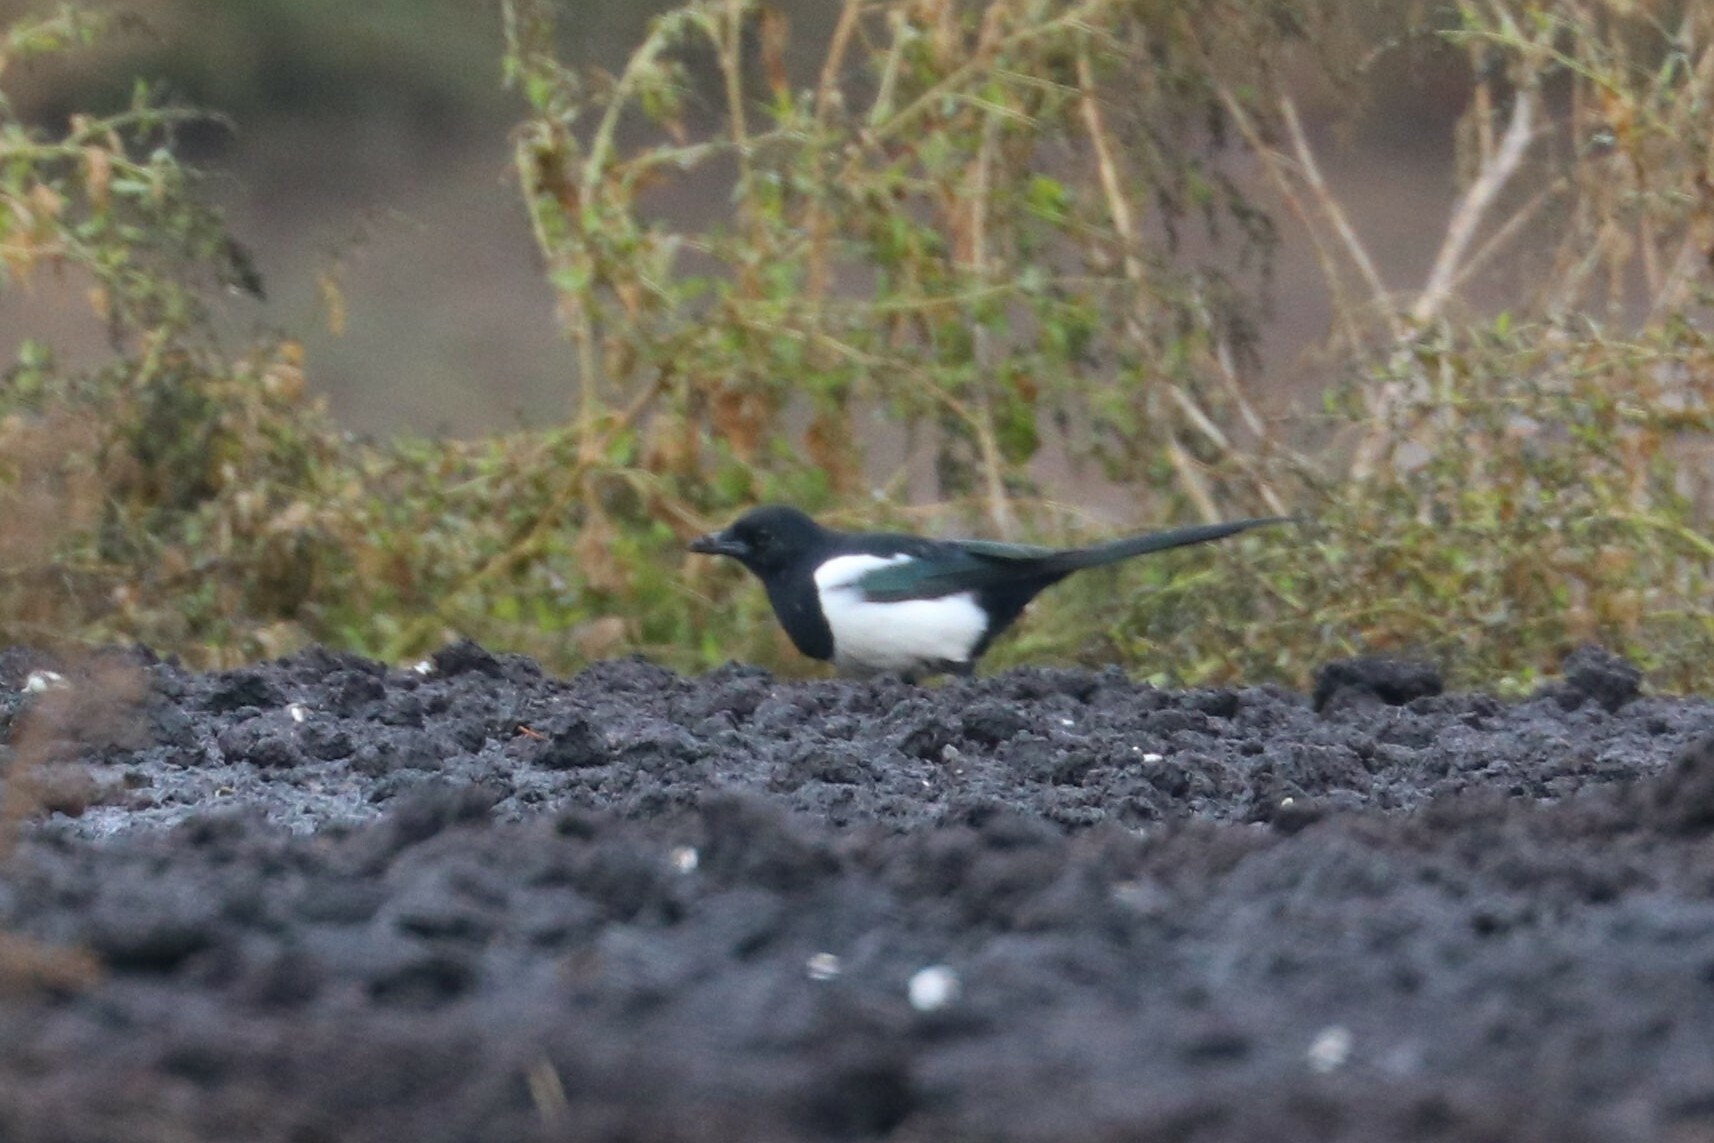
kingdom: Animalia
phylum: Chordata
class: Aves
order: Passeriformes
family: Corvidae
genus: Pica
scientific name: Pica pica
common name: Eurasian magpie
